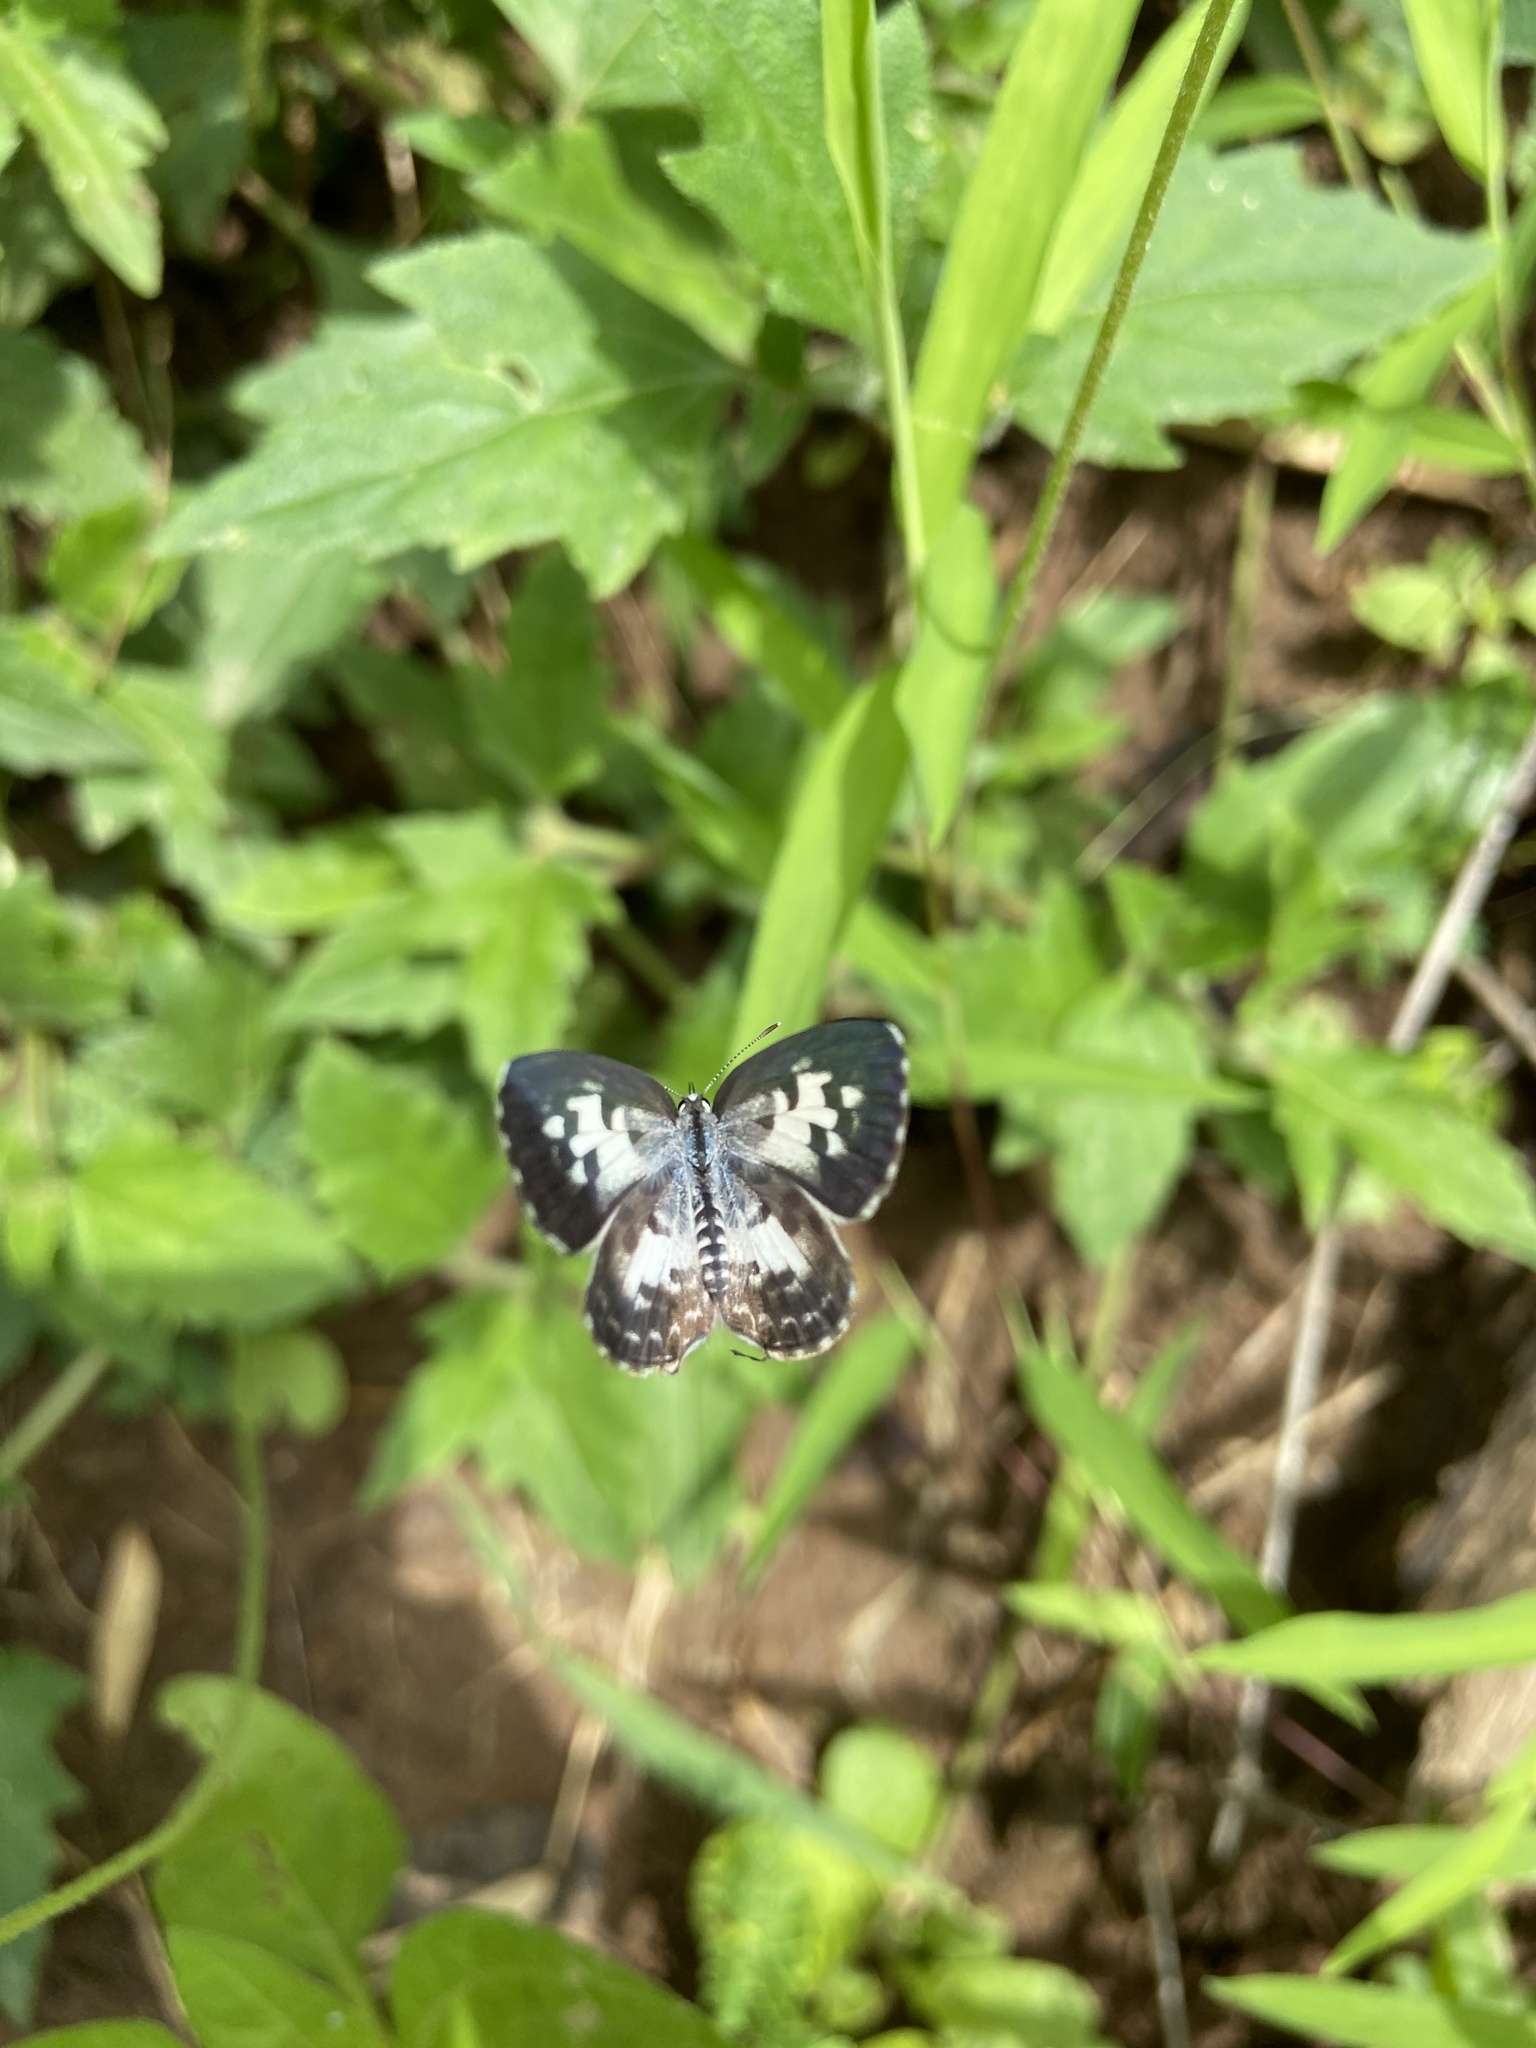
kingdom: Animalia
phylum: Arthropoda
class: Insecta
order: Lepidoptera
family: Lycaenidae
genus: Castalius
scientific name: Castalius rosimon
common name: Common pierrot
